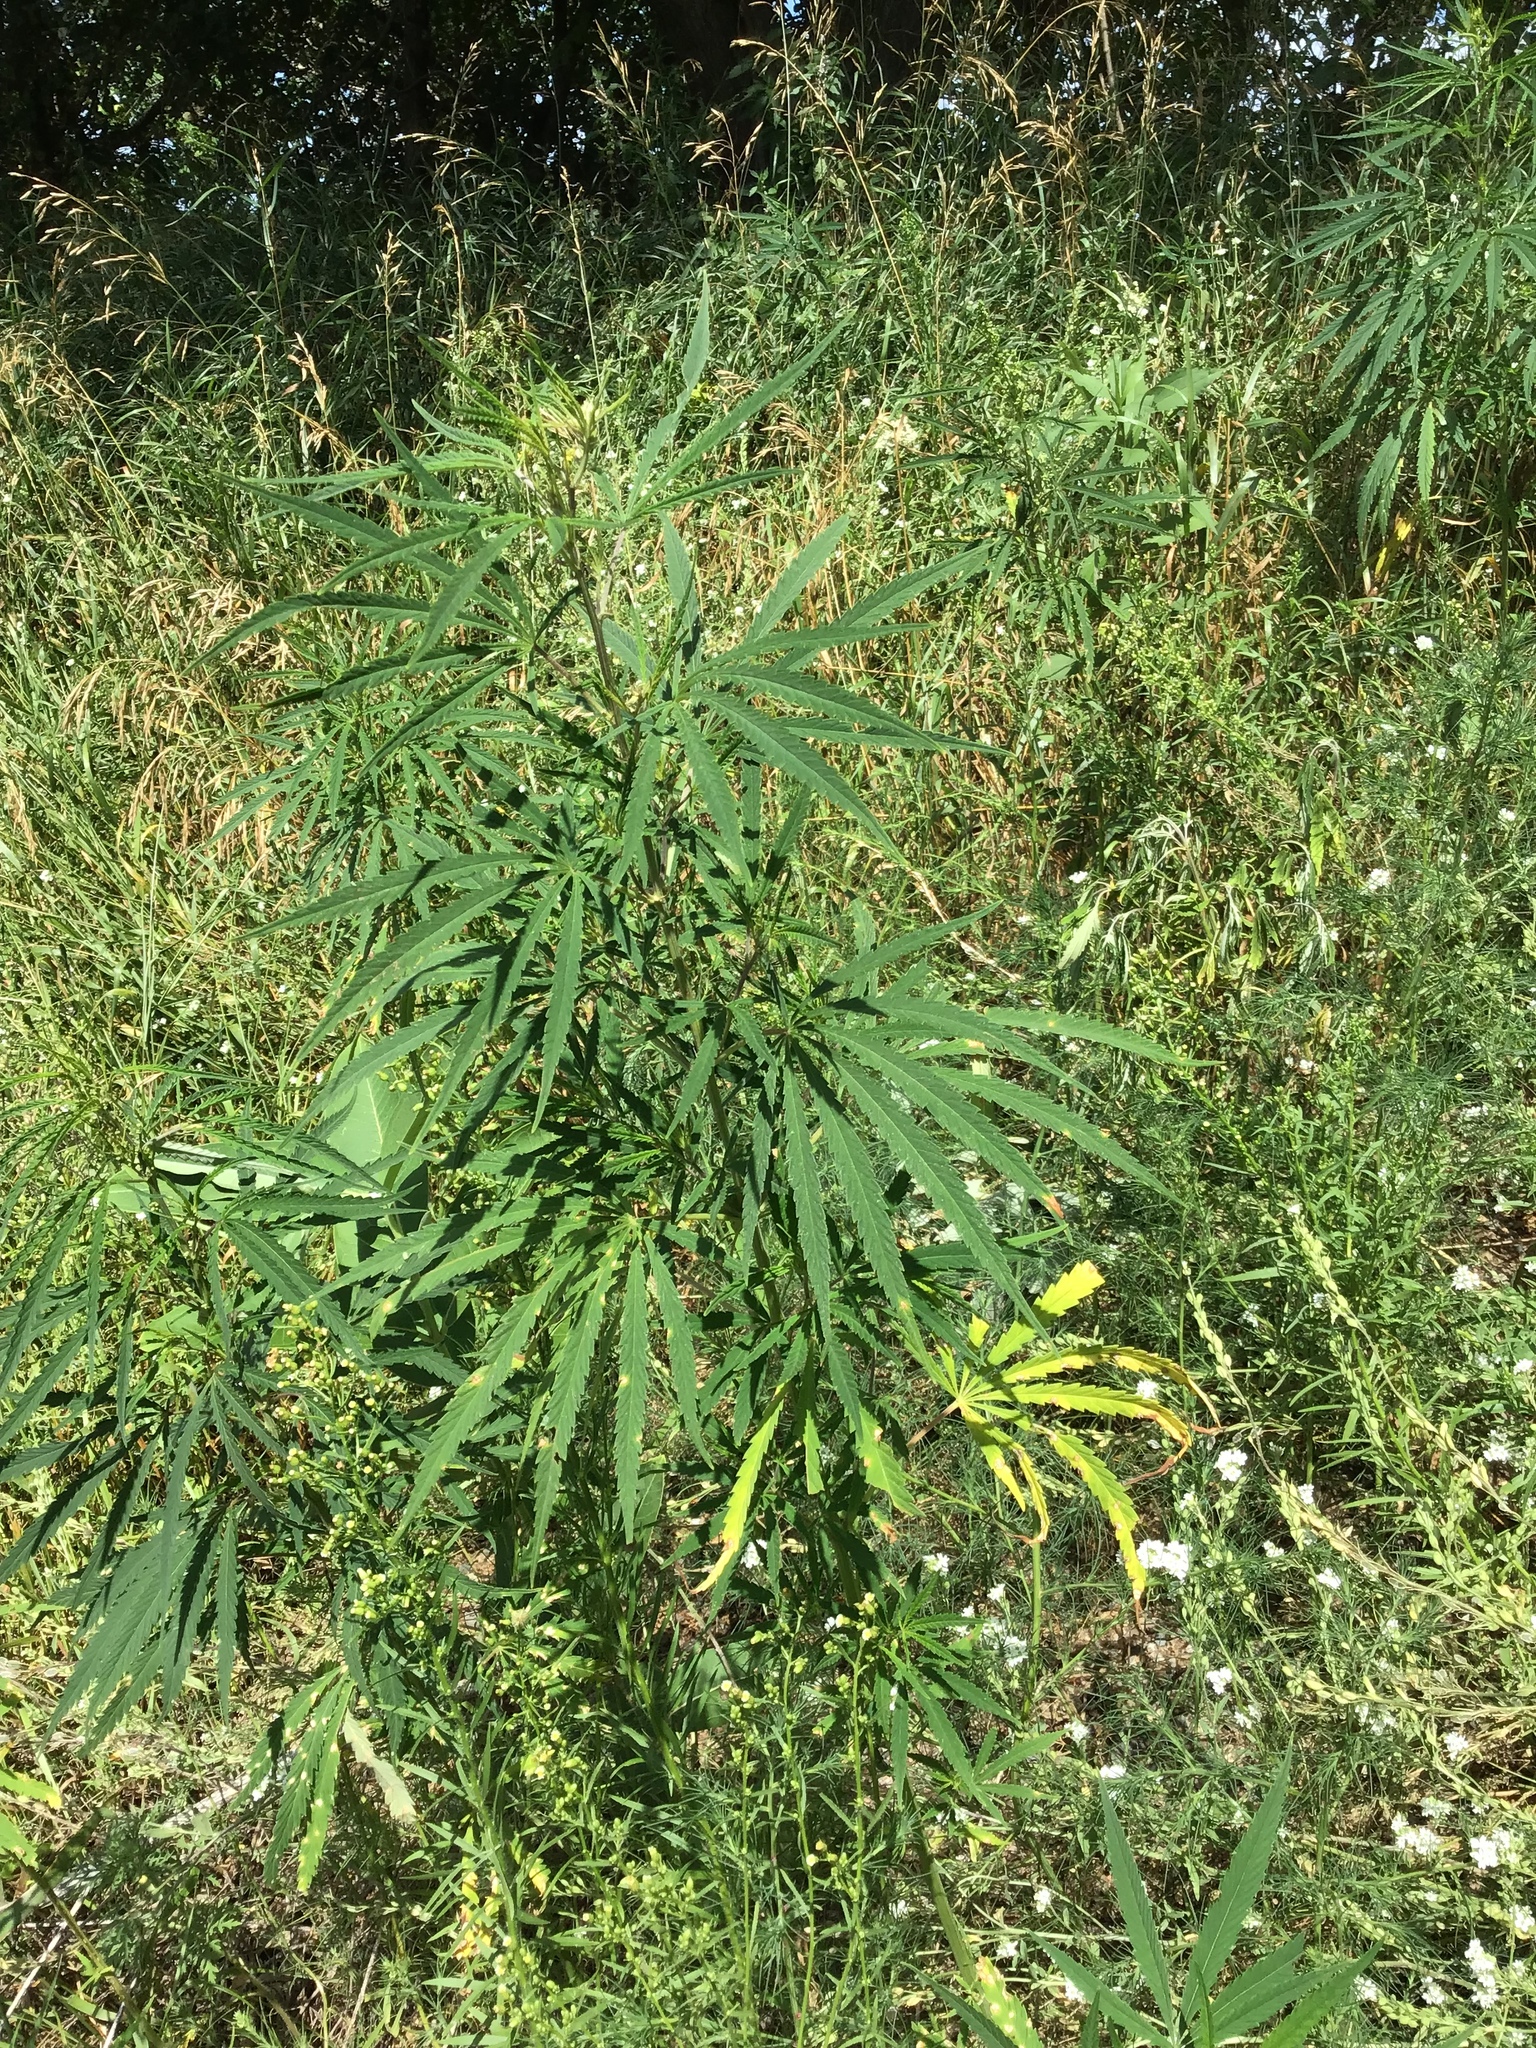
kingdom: Plantae
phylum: Tracheophyta
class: Magnoliopsida
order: Rosales
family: Cannabaceae
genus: Cannabis
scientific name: Cannabis sativa
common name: Hemp
